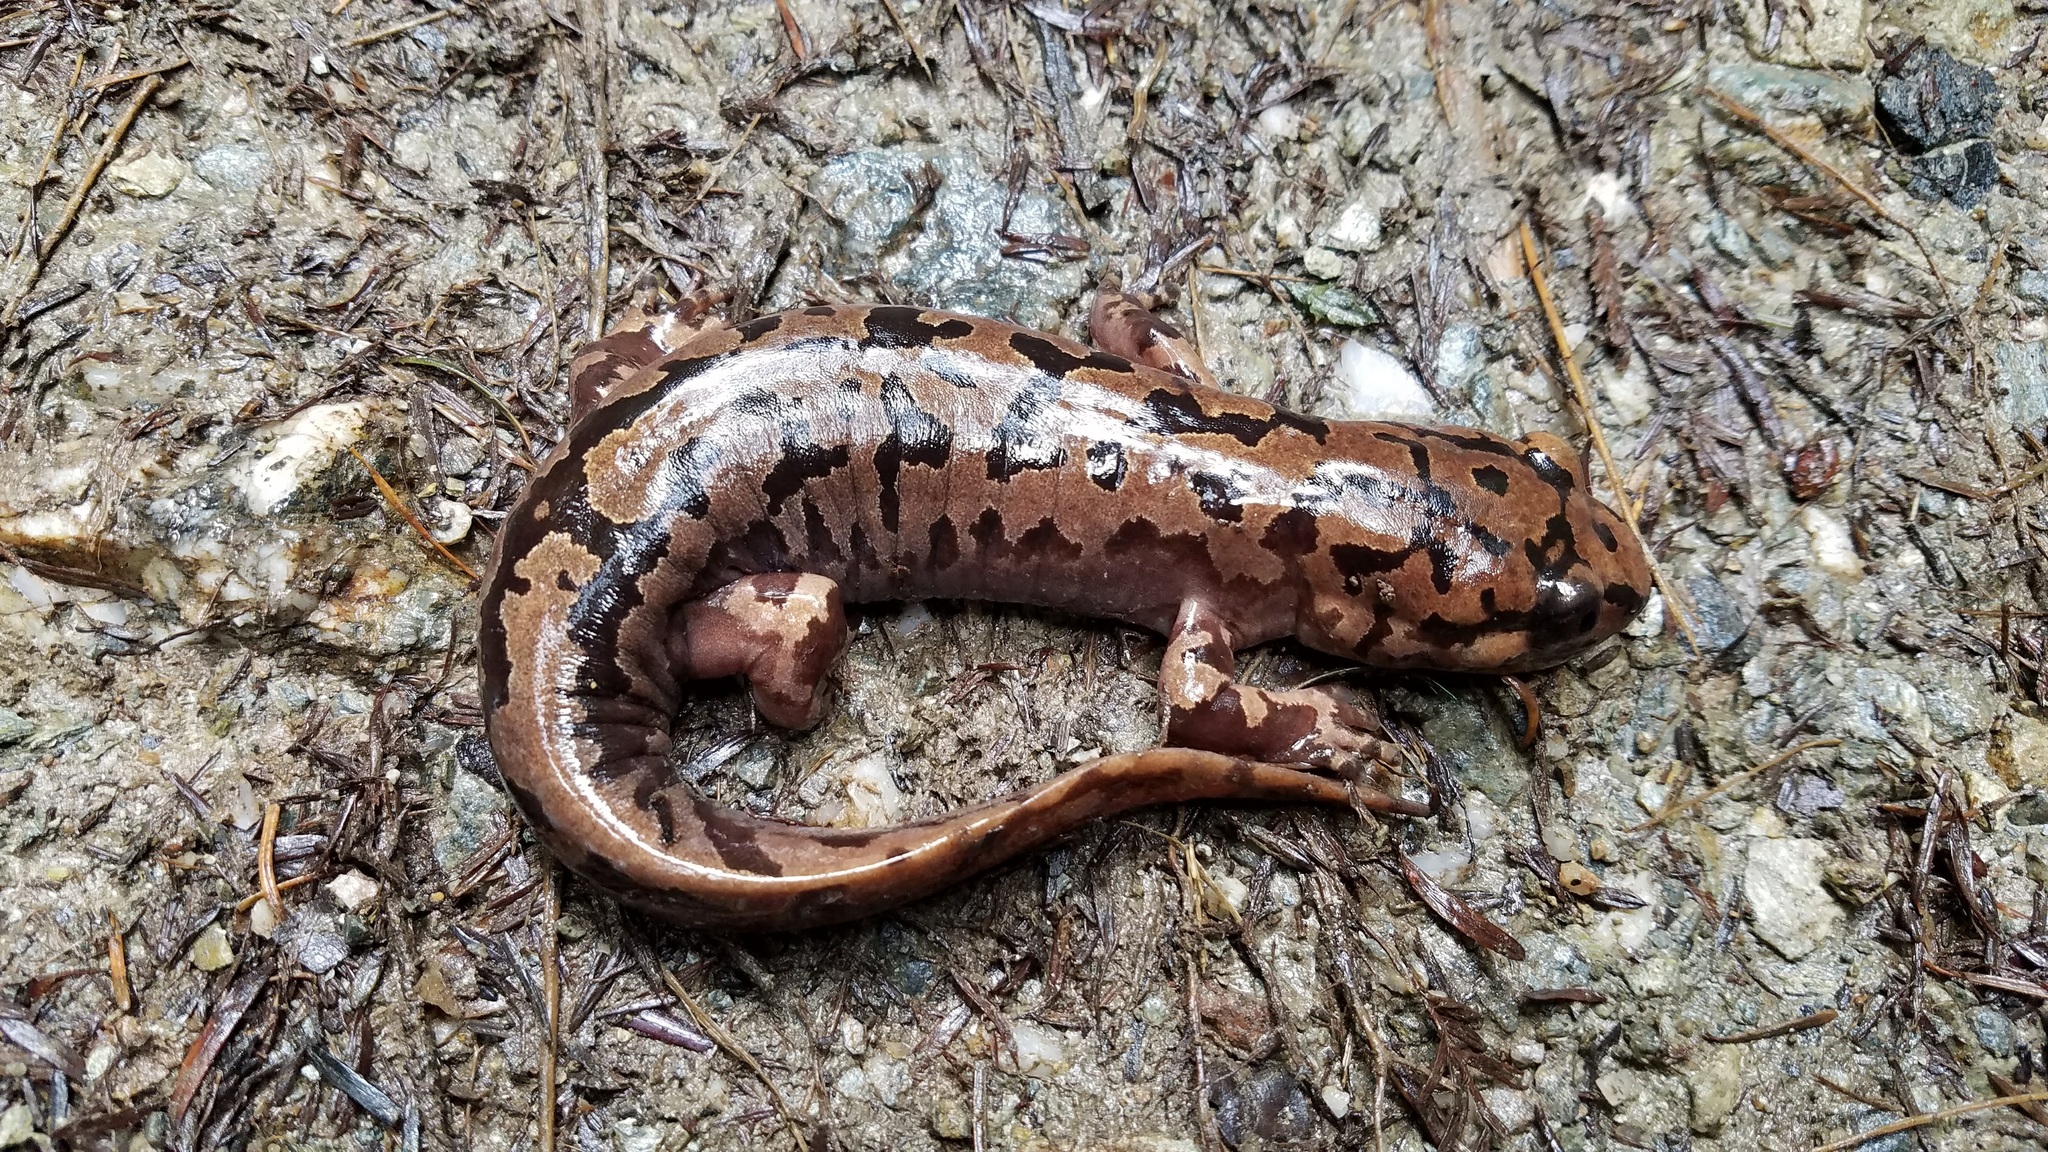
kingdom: Animalia
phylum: Chordata
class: Amphibia
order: Caudata
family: Ambystomatidae
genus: Dicamptodon
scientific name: Dicamptodon tenebrosus
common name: Coastal giant salamander
